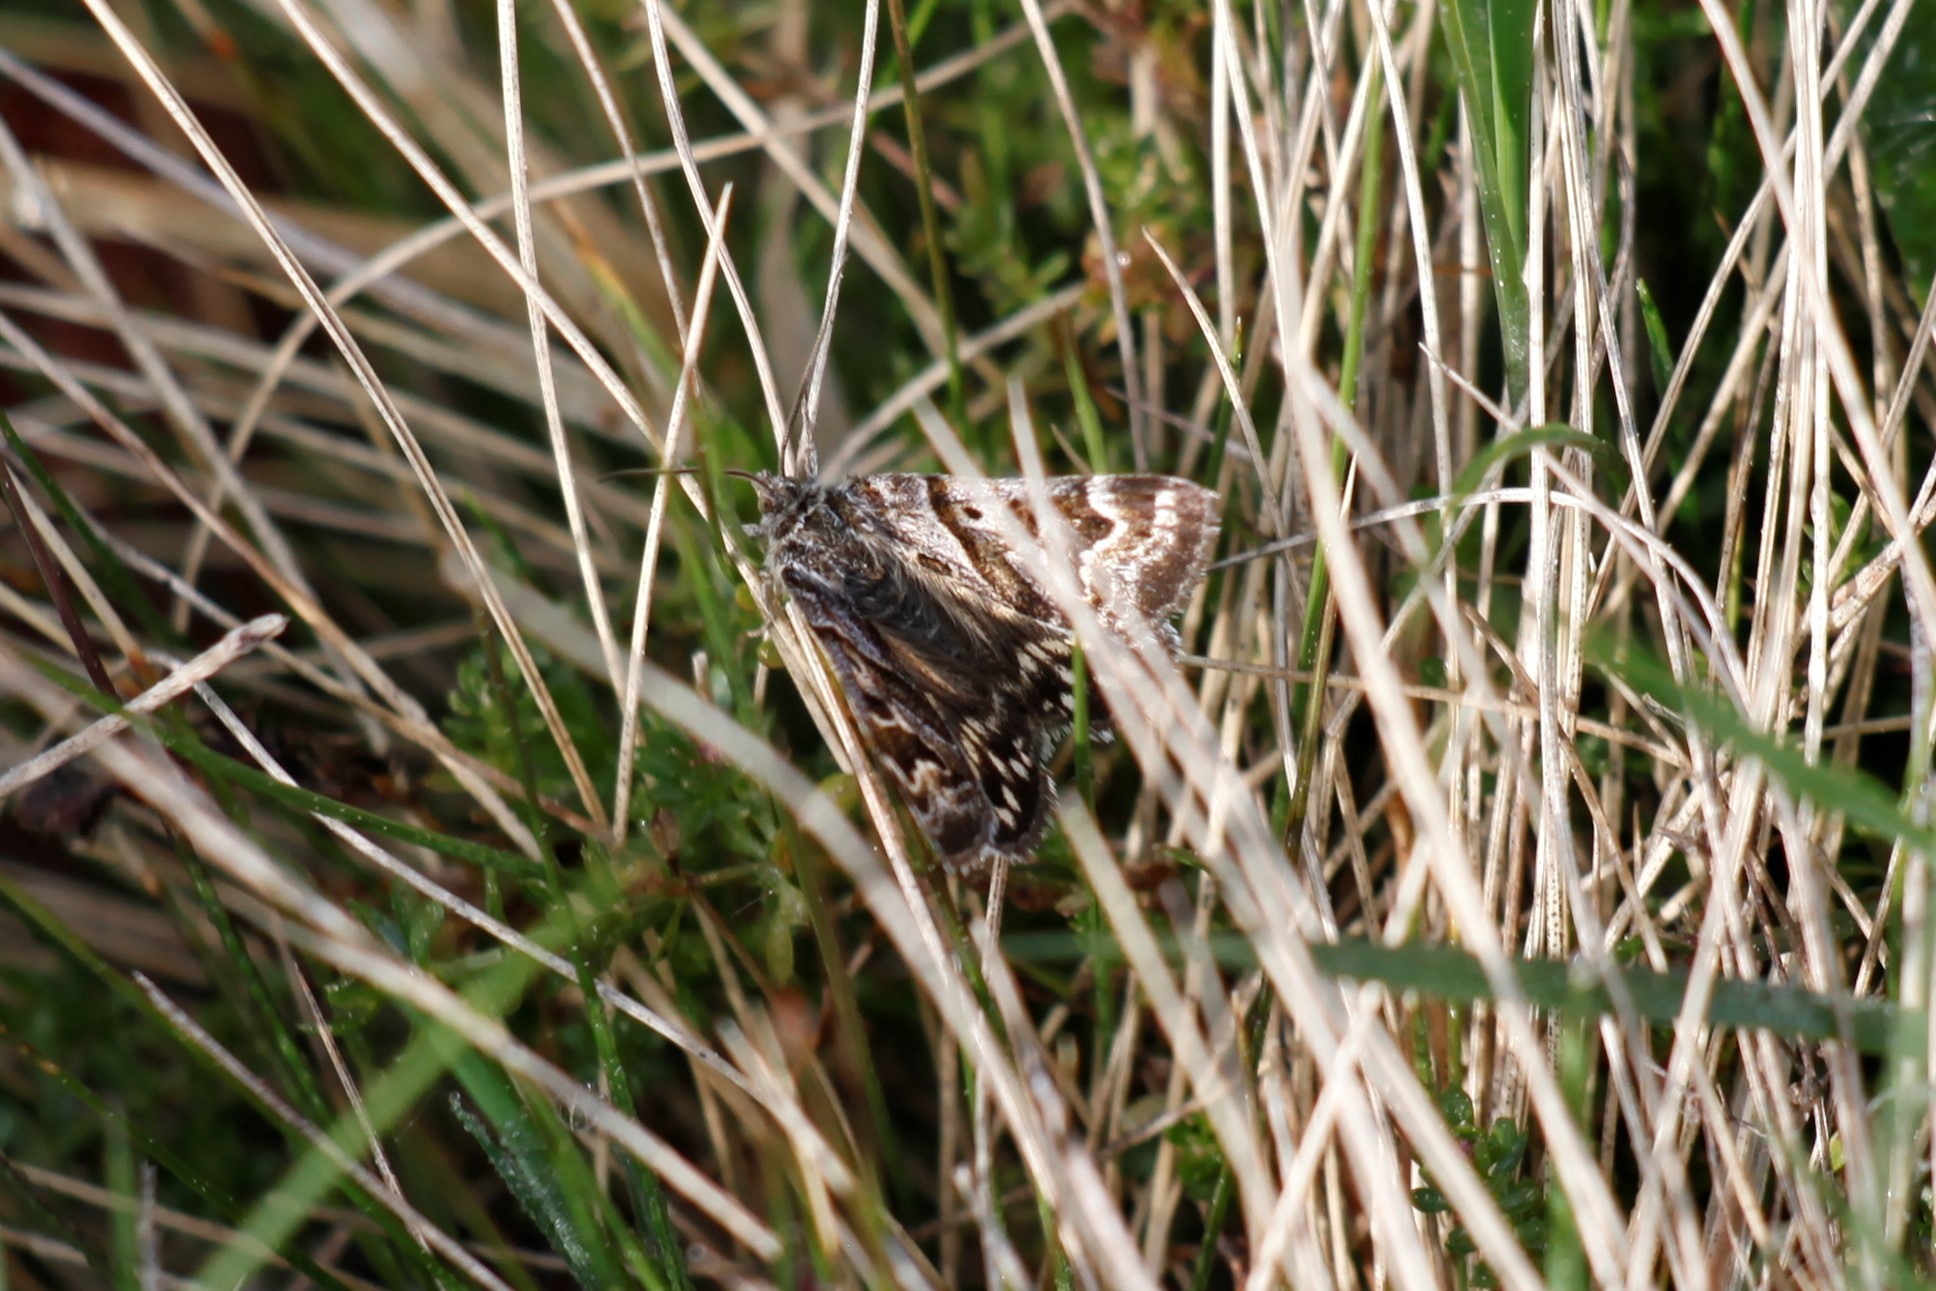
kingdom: Animalia
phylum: Arthropoda
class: Insecta
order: Lepidoptera
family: Erebidae
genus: Callistege
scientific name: Callistege mi
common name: Mother shipton
